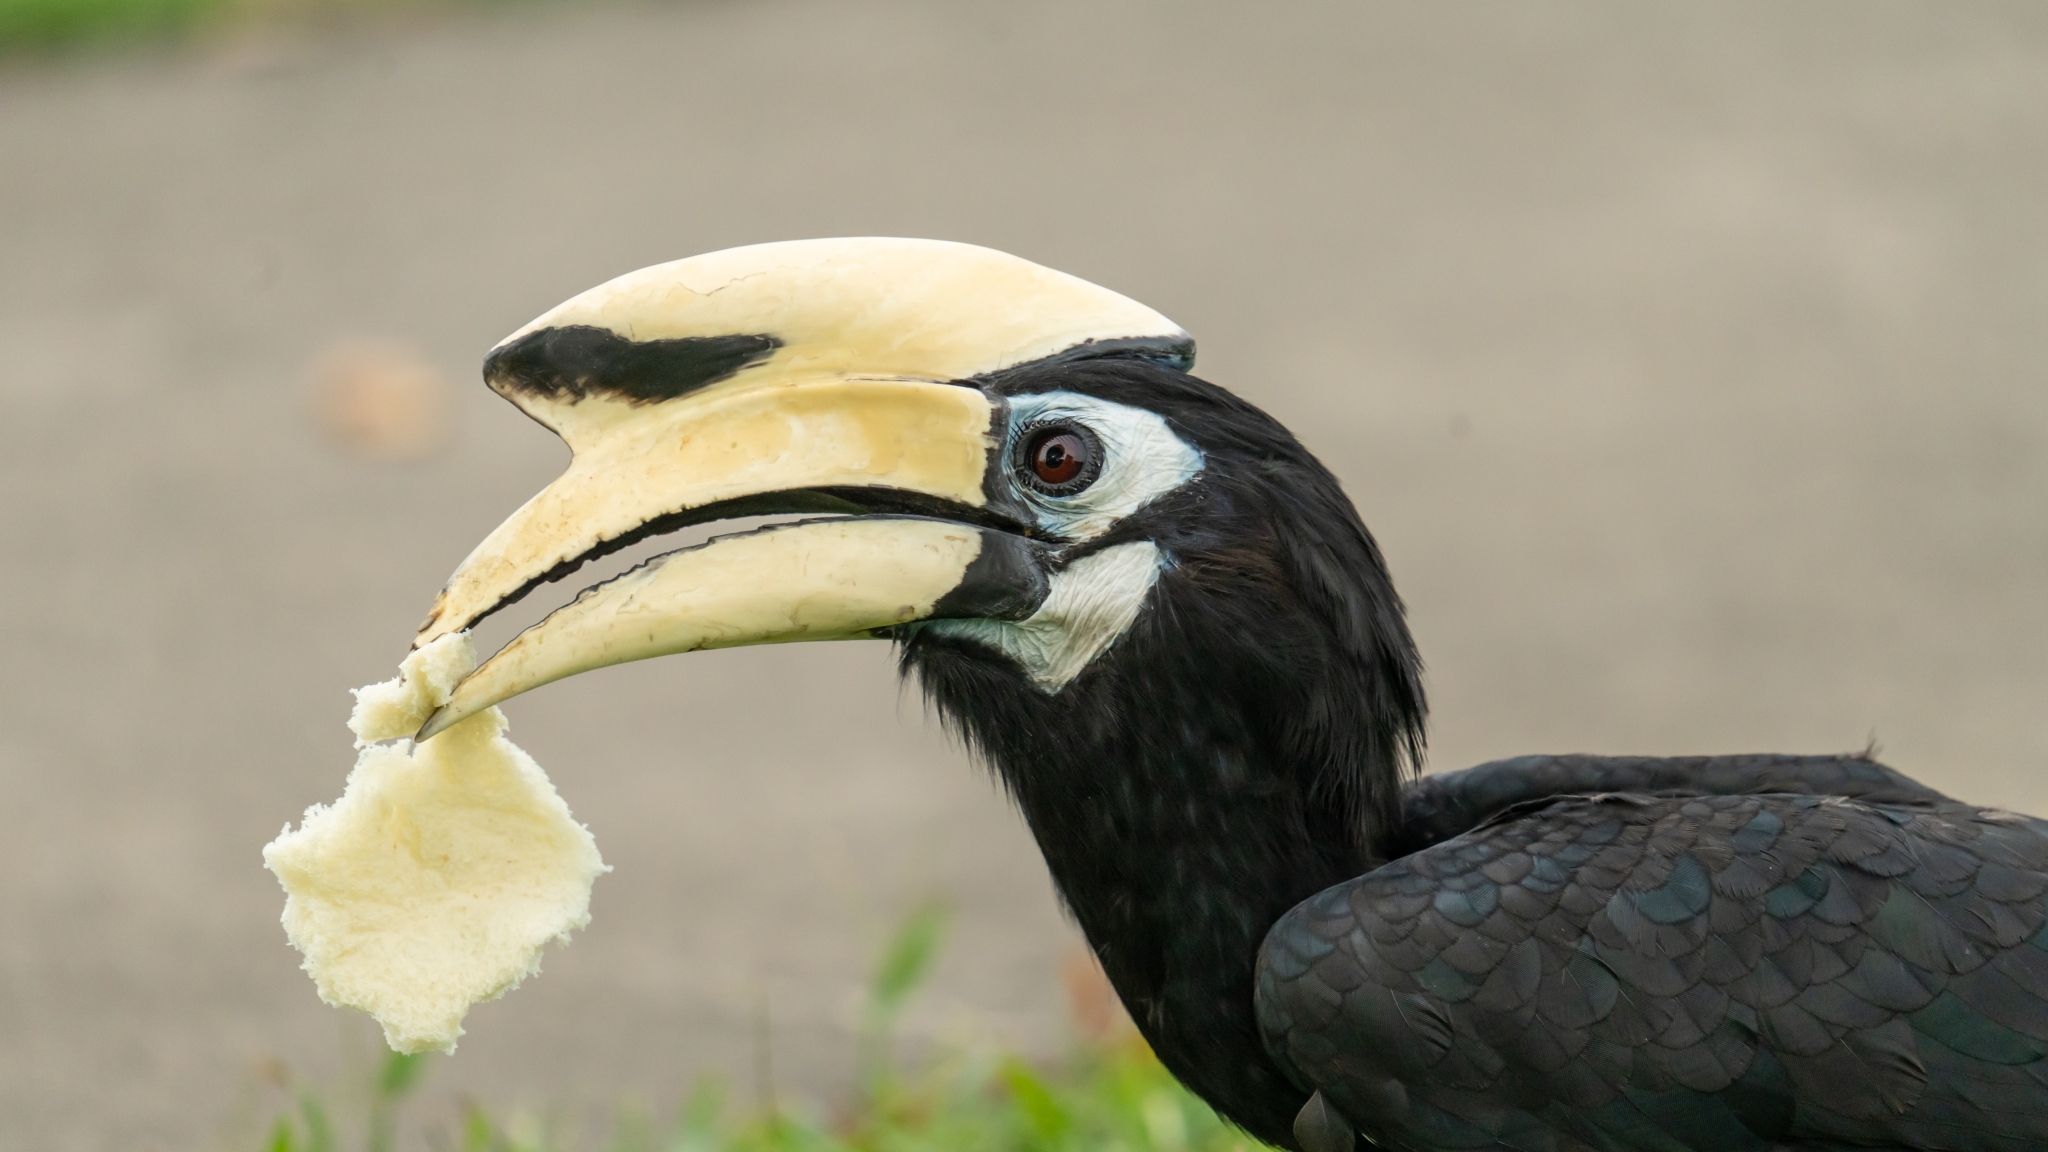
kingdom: Animalia
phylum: Chordata
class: Aves
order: Bucerotiformes
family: Bucerotidae
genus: Anthracoceros
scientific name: Anthracoceros albirostris
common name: Oriental pied-hornbill
